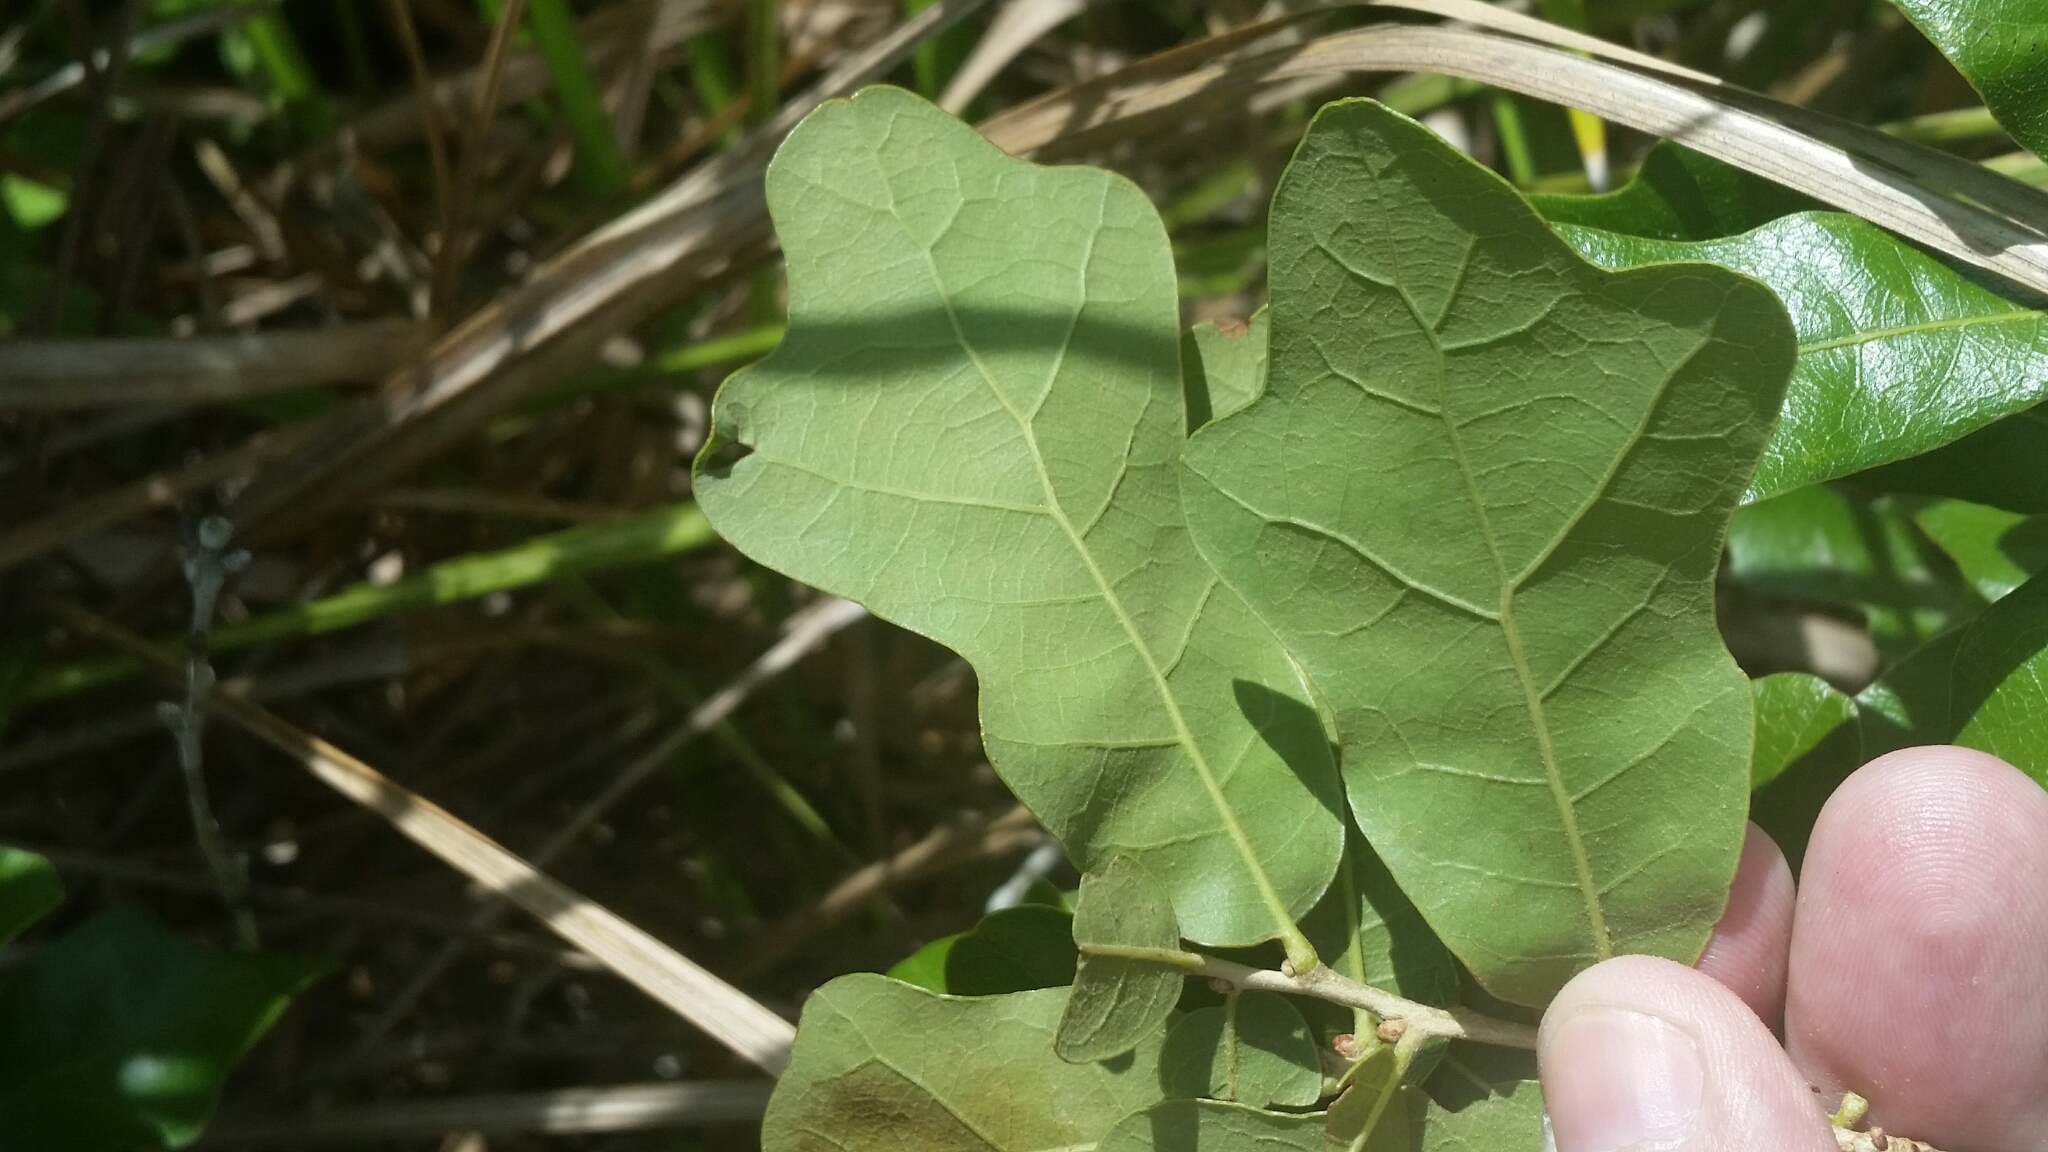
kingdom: Plantae
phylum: Tracheophyta
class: Magnoliopsida
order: Fagales
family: Fagaceae
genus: Quercus
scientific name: Quercus chapmanii
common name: Chapman oak
